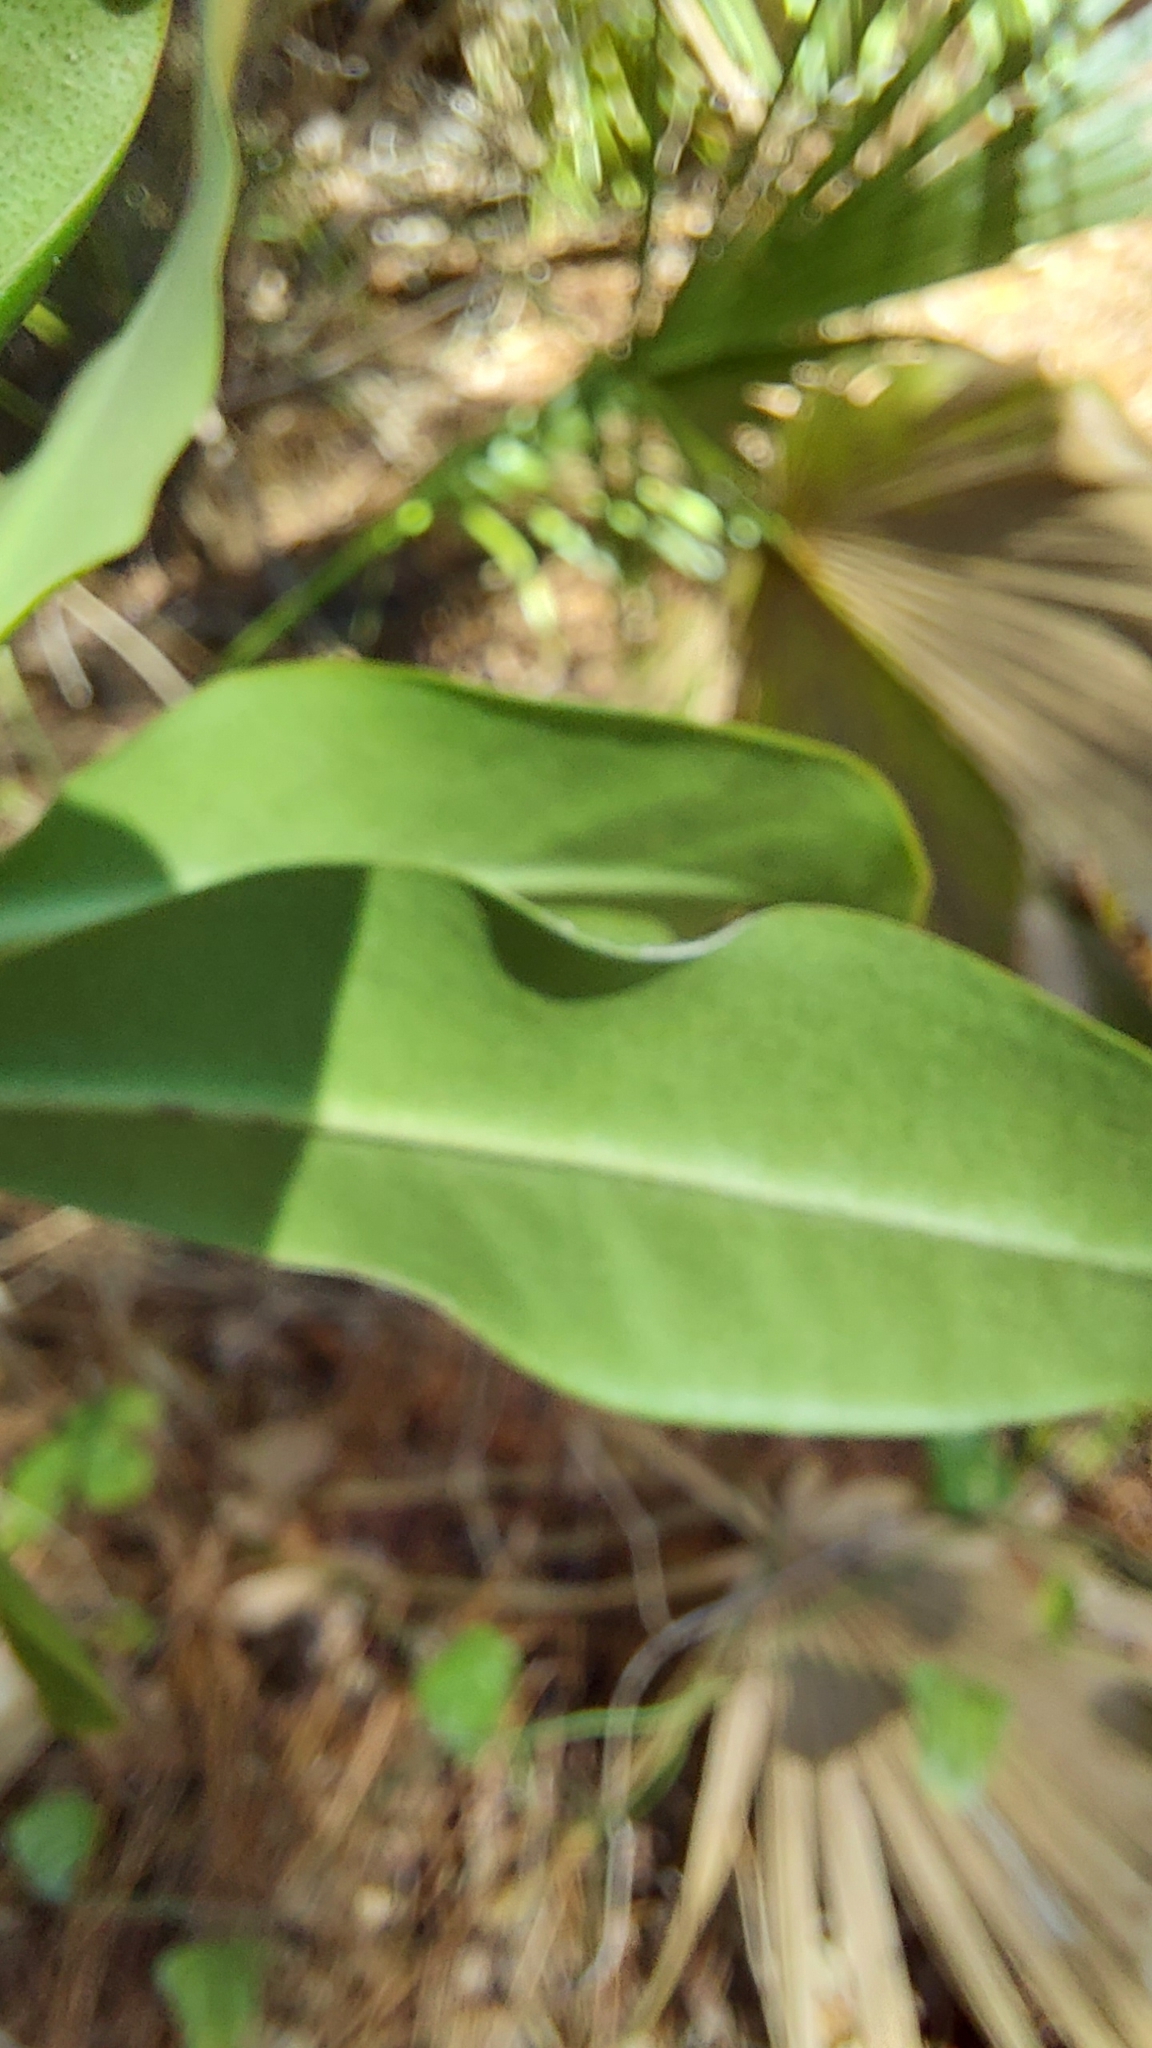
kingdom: Plantae
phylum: Tracheophyta
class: Magnoliopsida
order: Ericales
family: Primulaceae
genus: Myrsine
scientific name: Myrsine floridana
